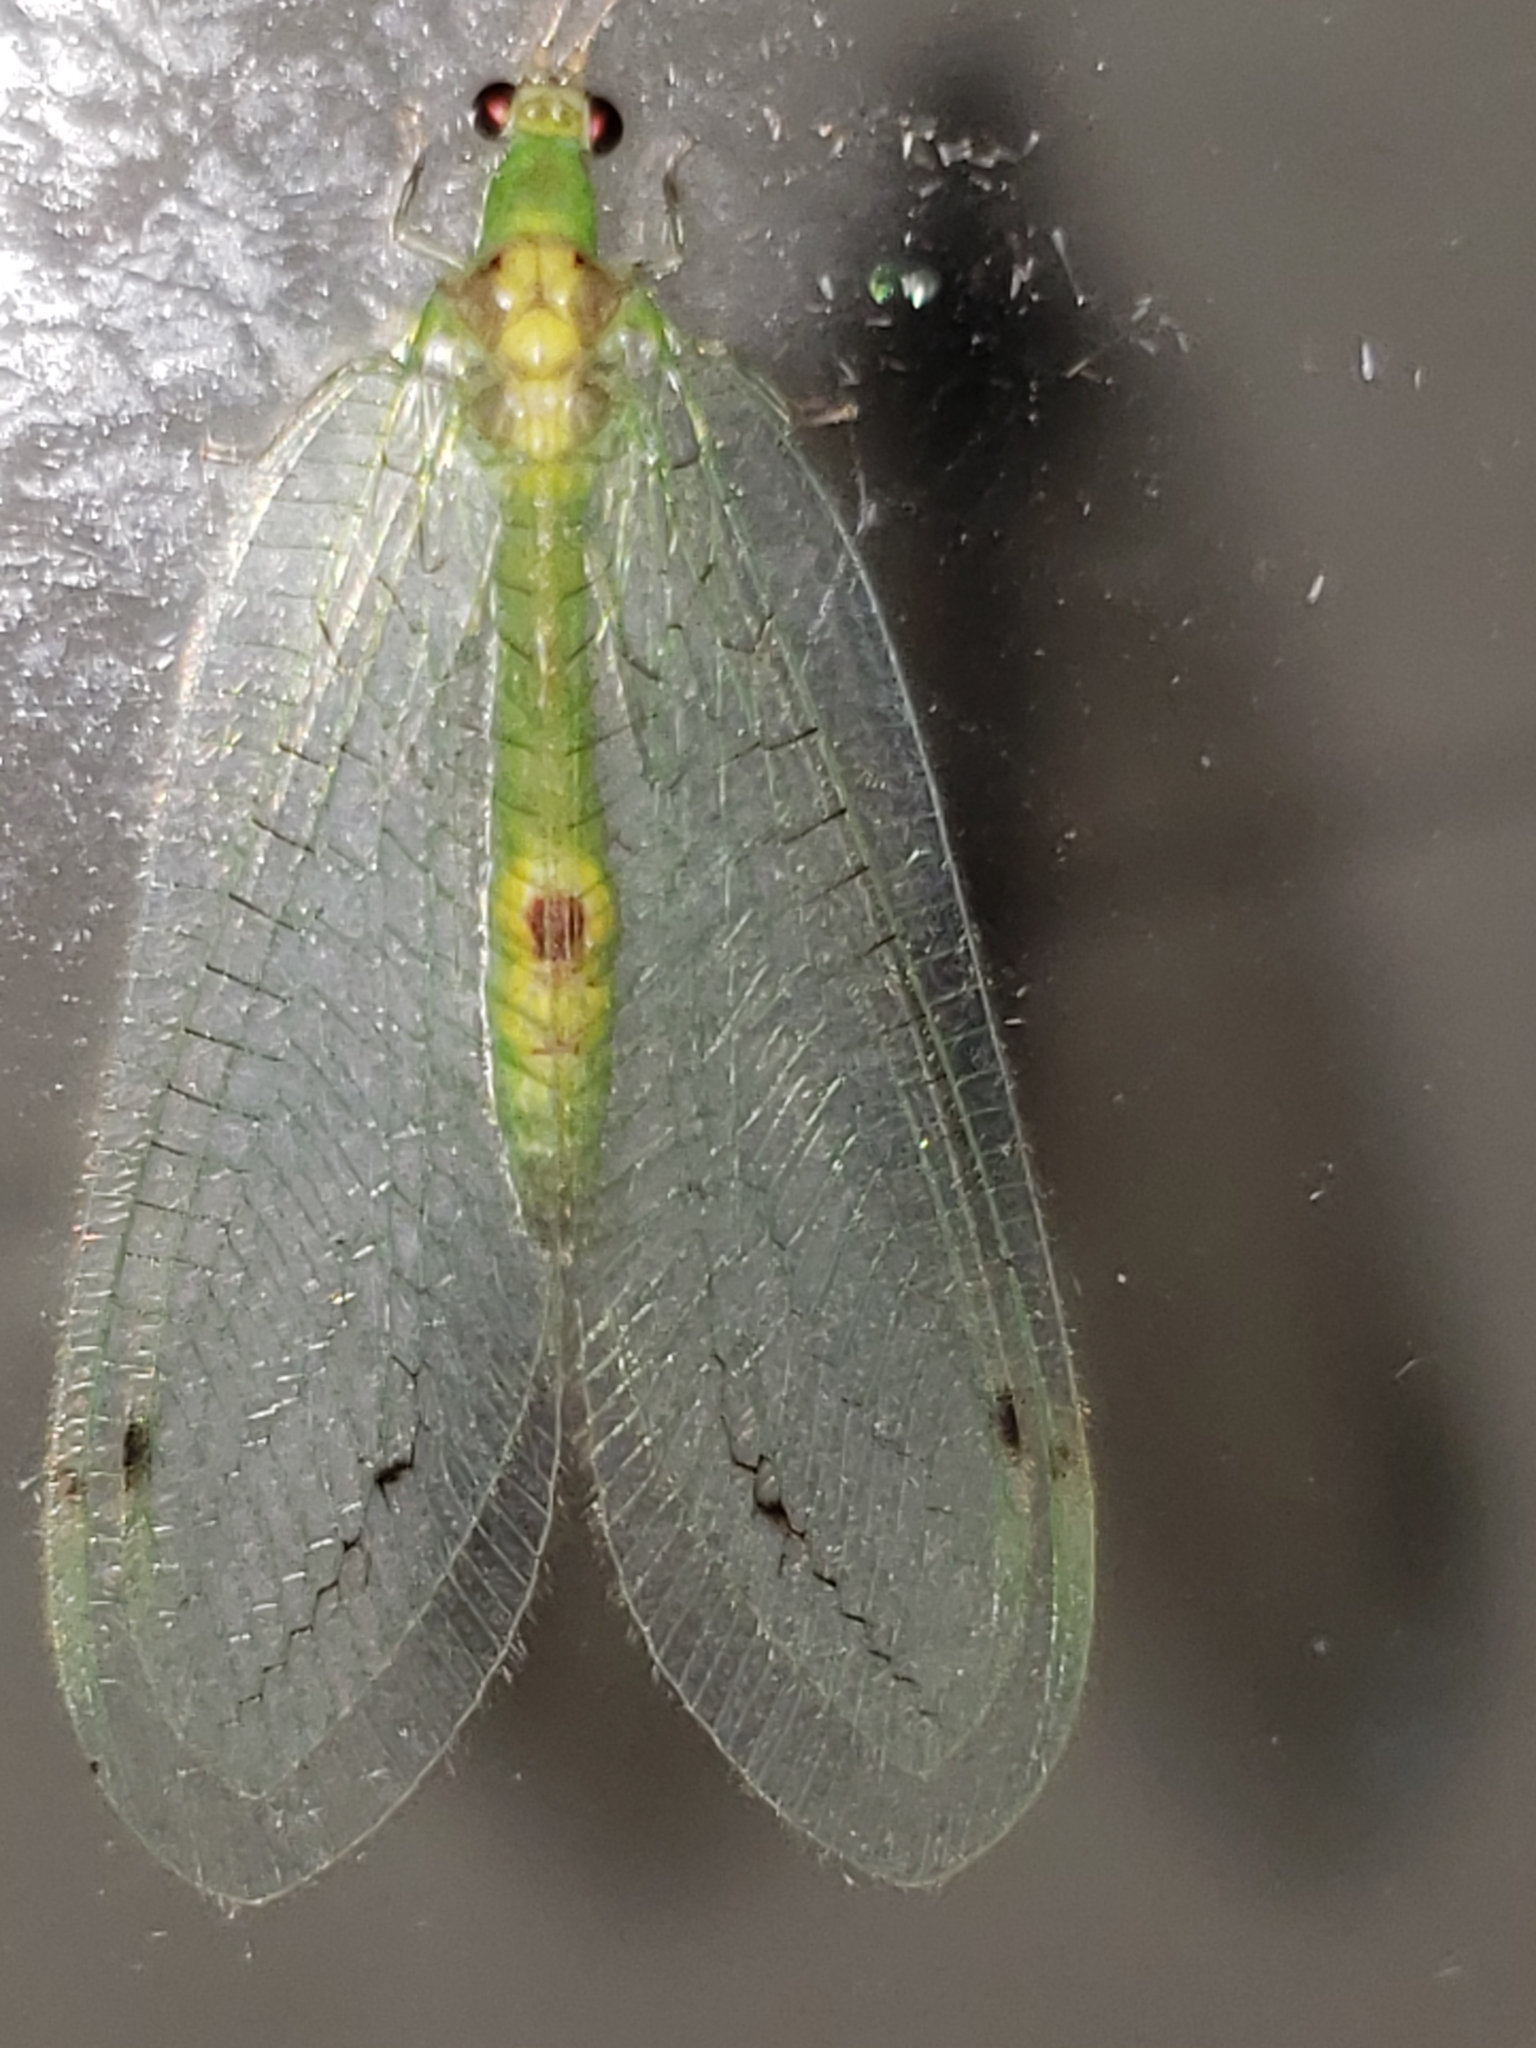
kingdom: Animalia
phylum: Arthropoda
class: Insecta
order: Neuroptera
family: Chrysopidae
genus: Leucochrysa
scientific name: Leucochrysa insularis
